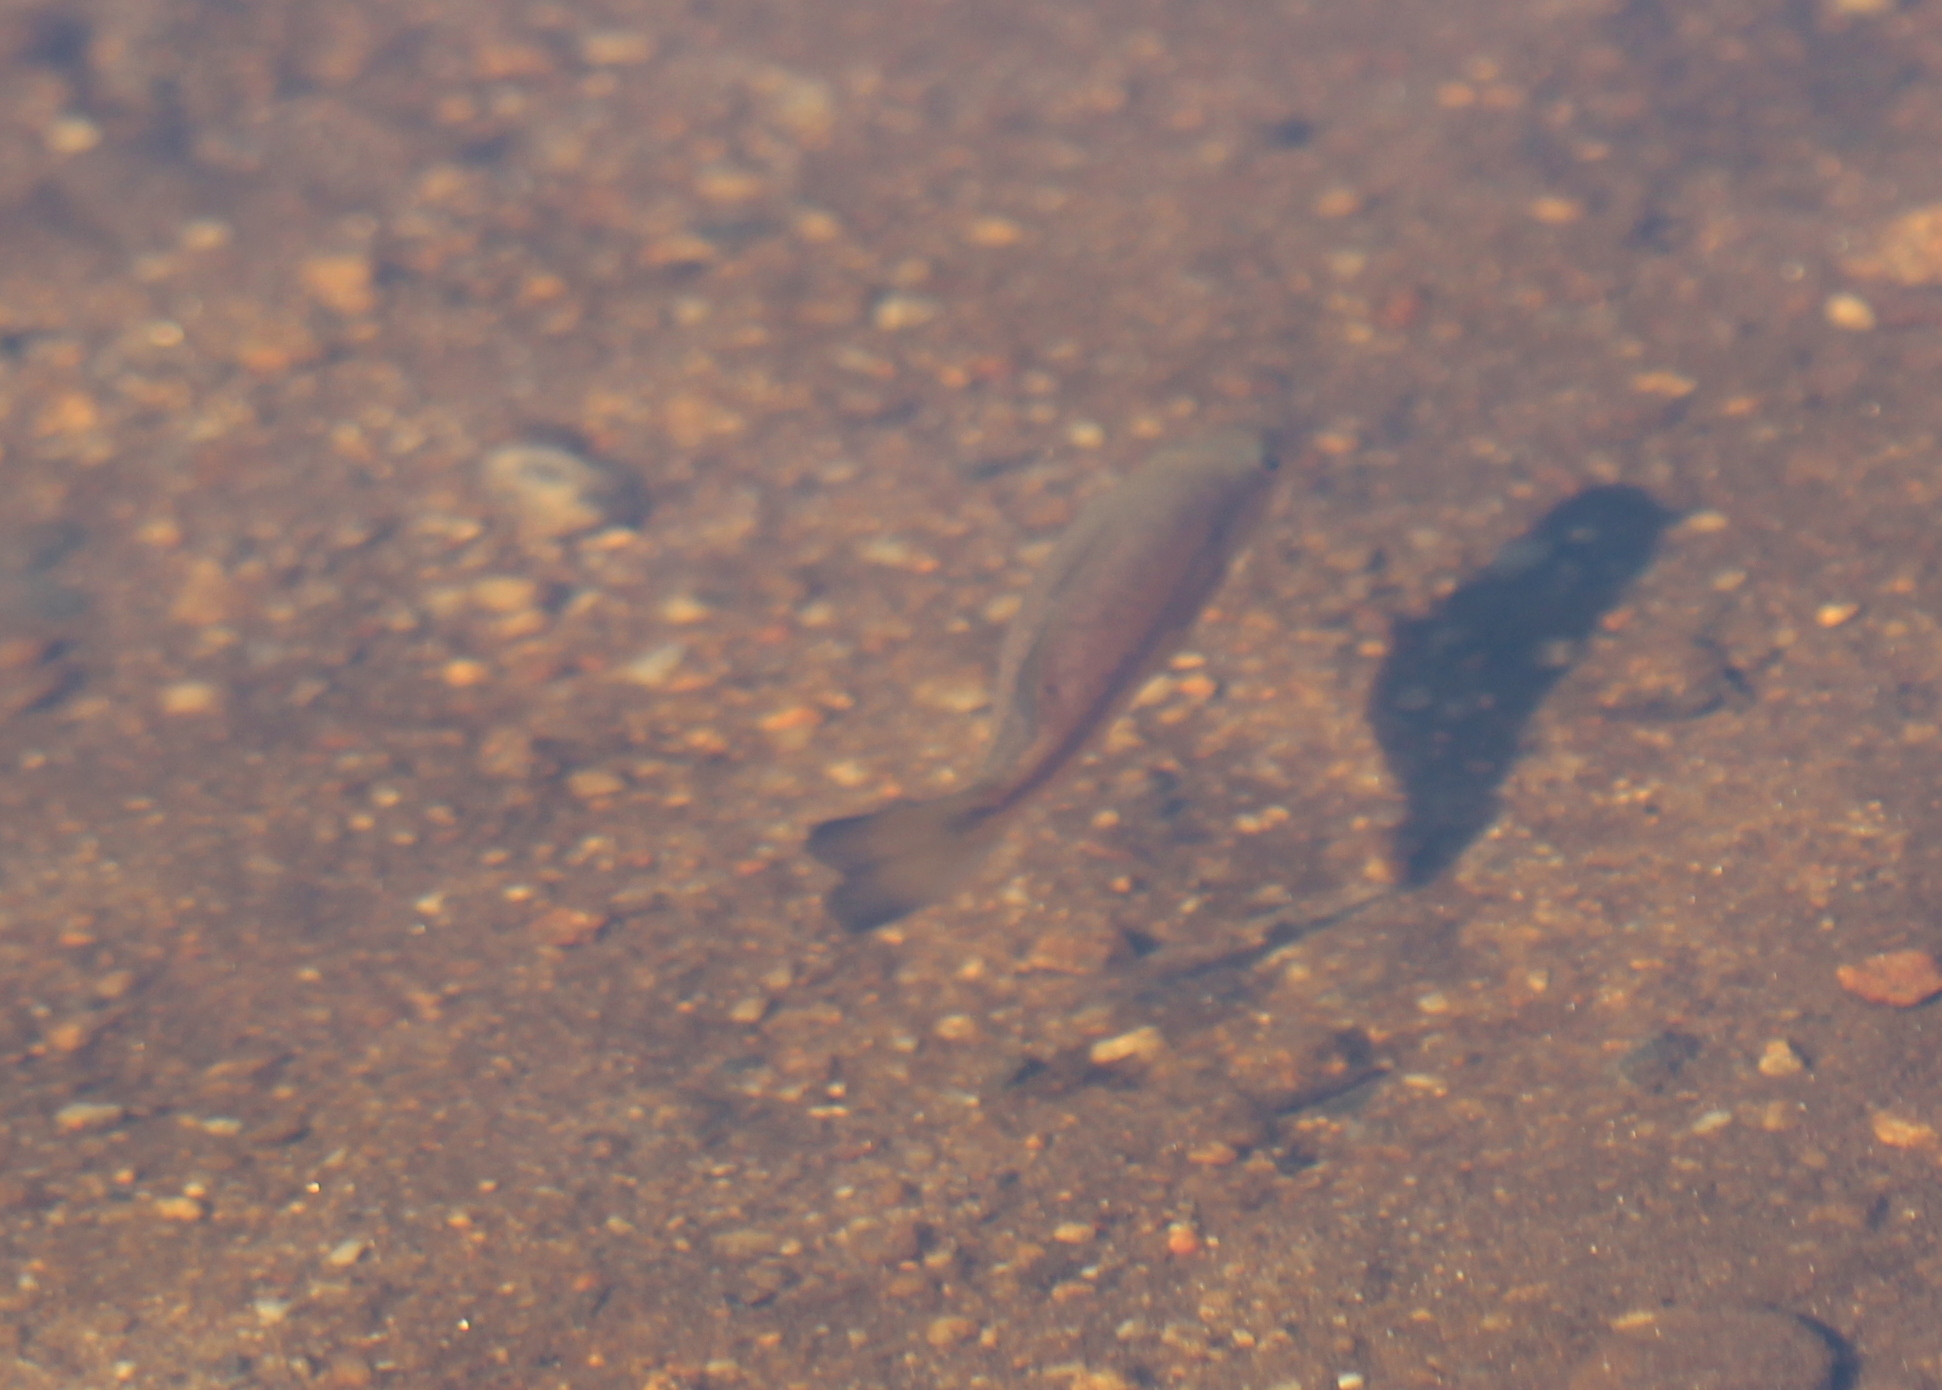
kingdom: Animalia
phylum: Chordata
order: Perciformes
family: Centrarchidae
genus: Micropterus
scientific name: Micropterus
